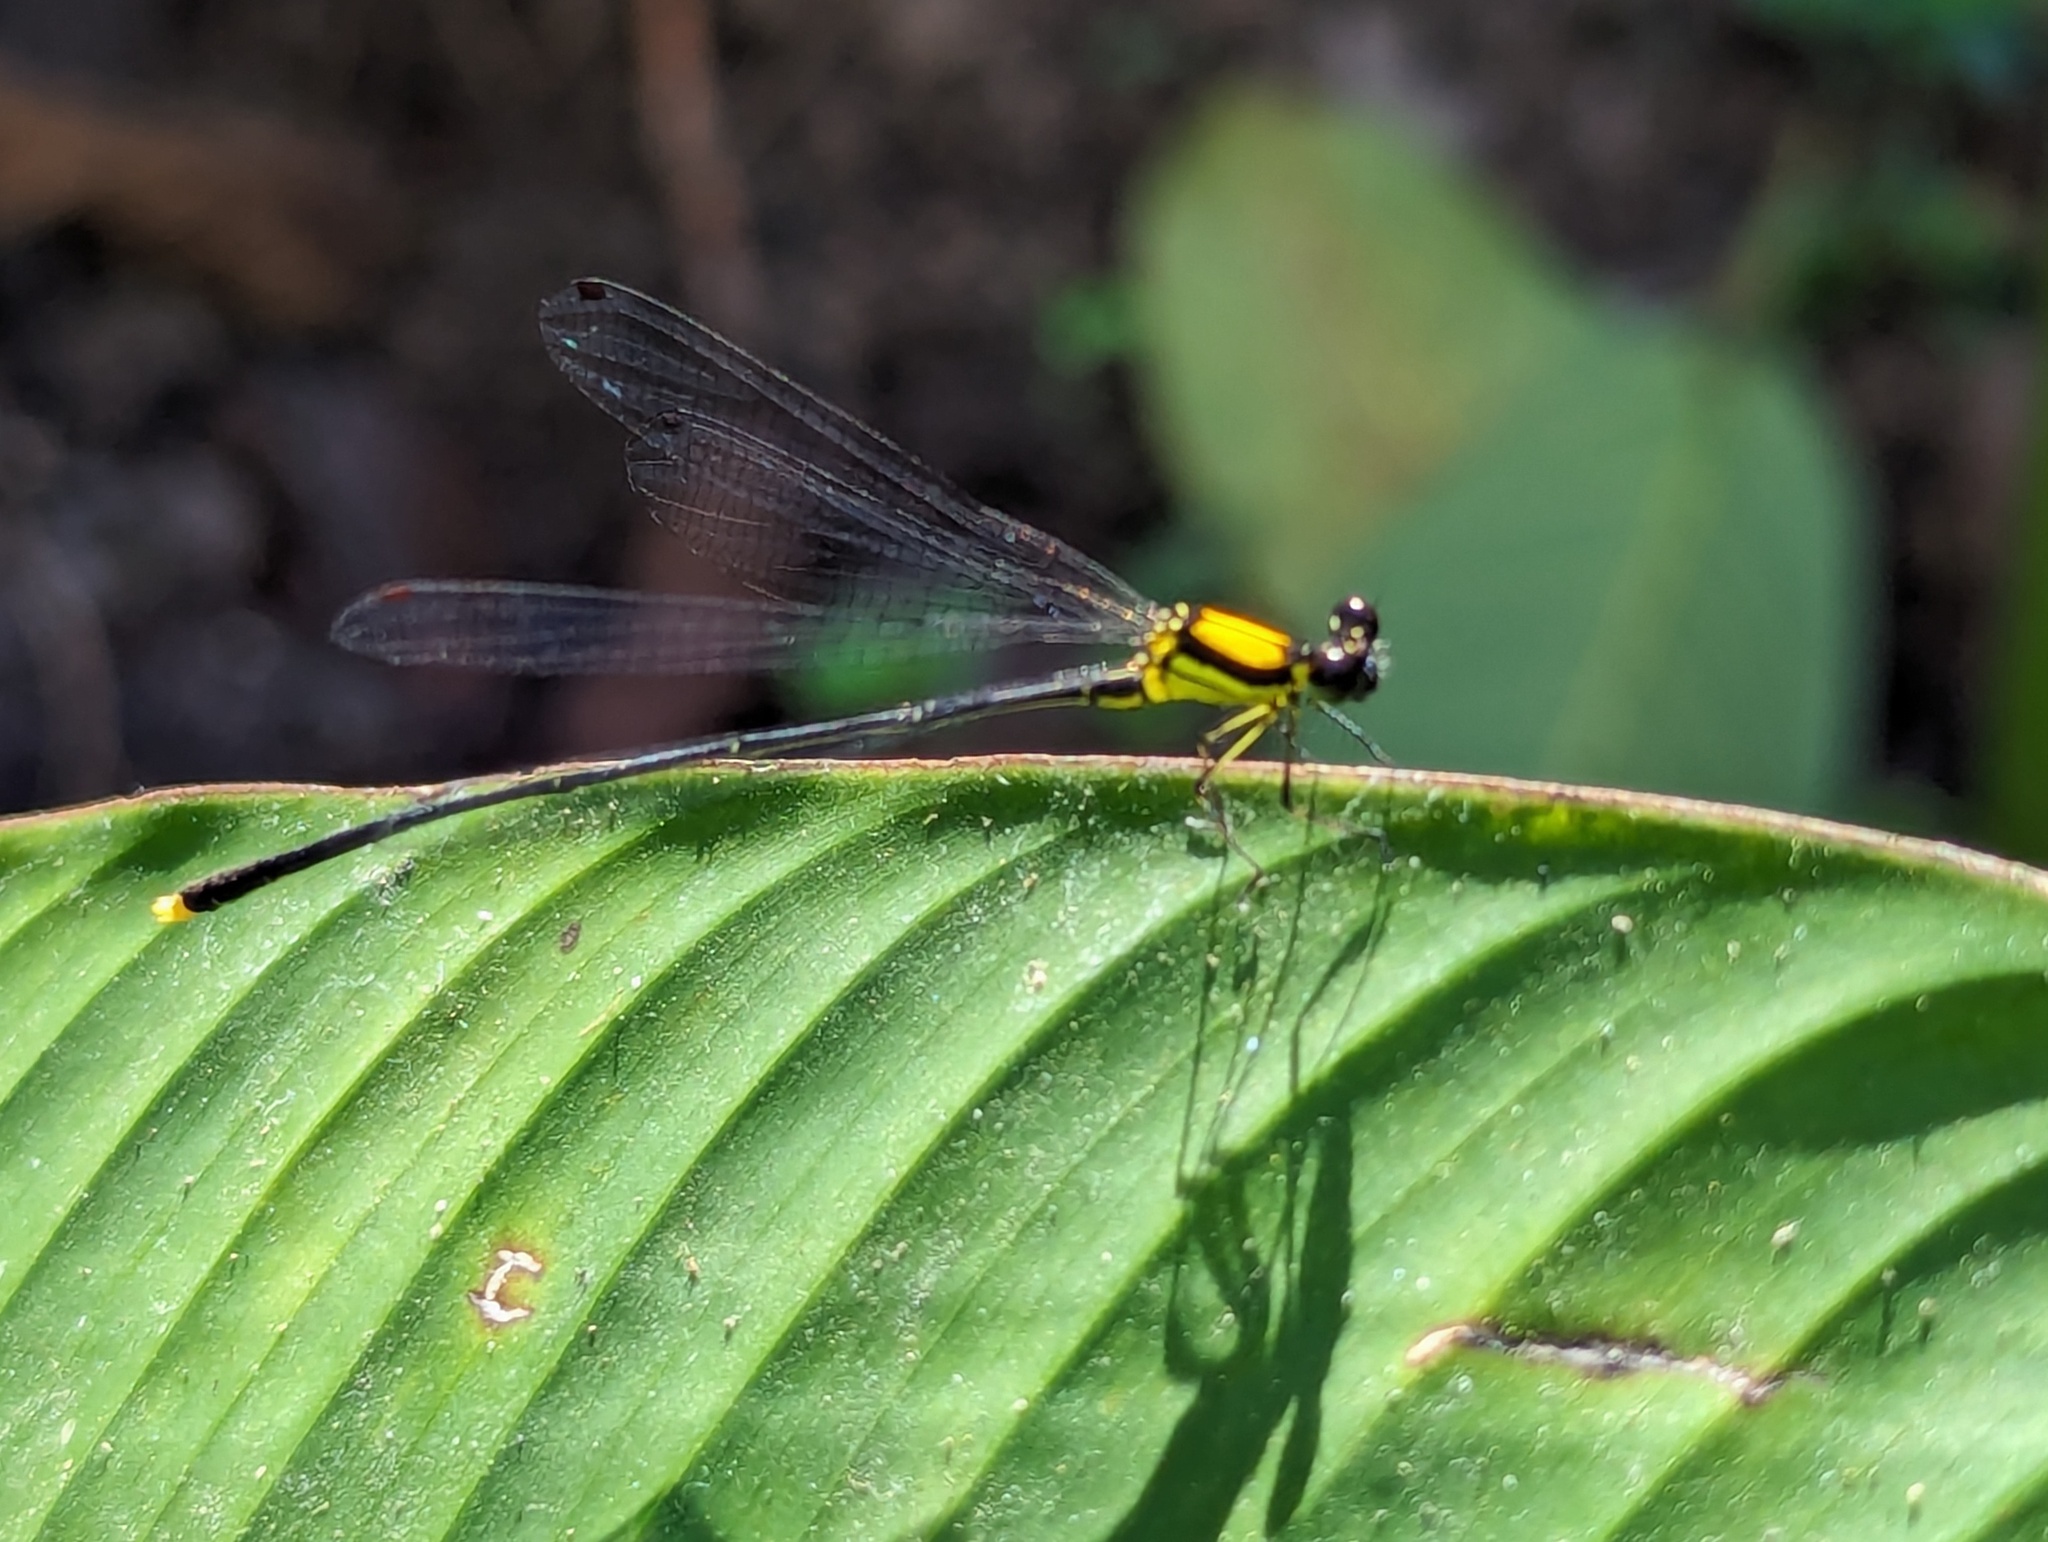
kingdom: Animalia
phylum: Arthropoda
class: Insecta
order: Odonata
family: Platycnemididae
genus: Coeliccia
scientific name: Coeliccia chromothorax
